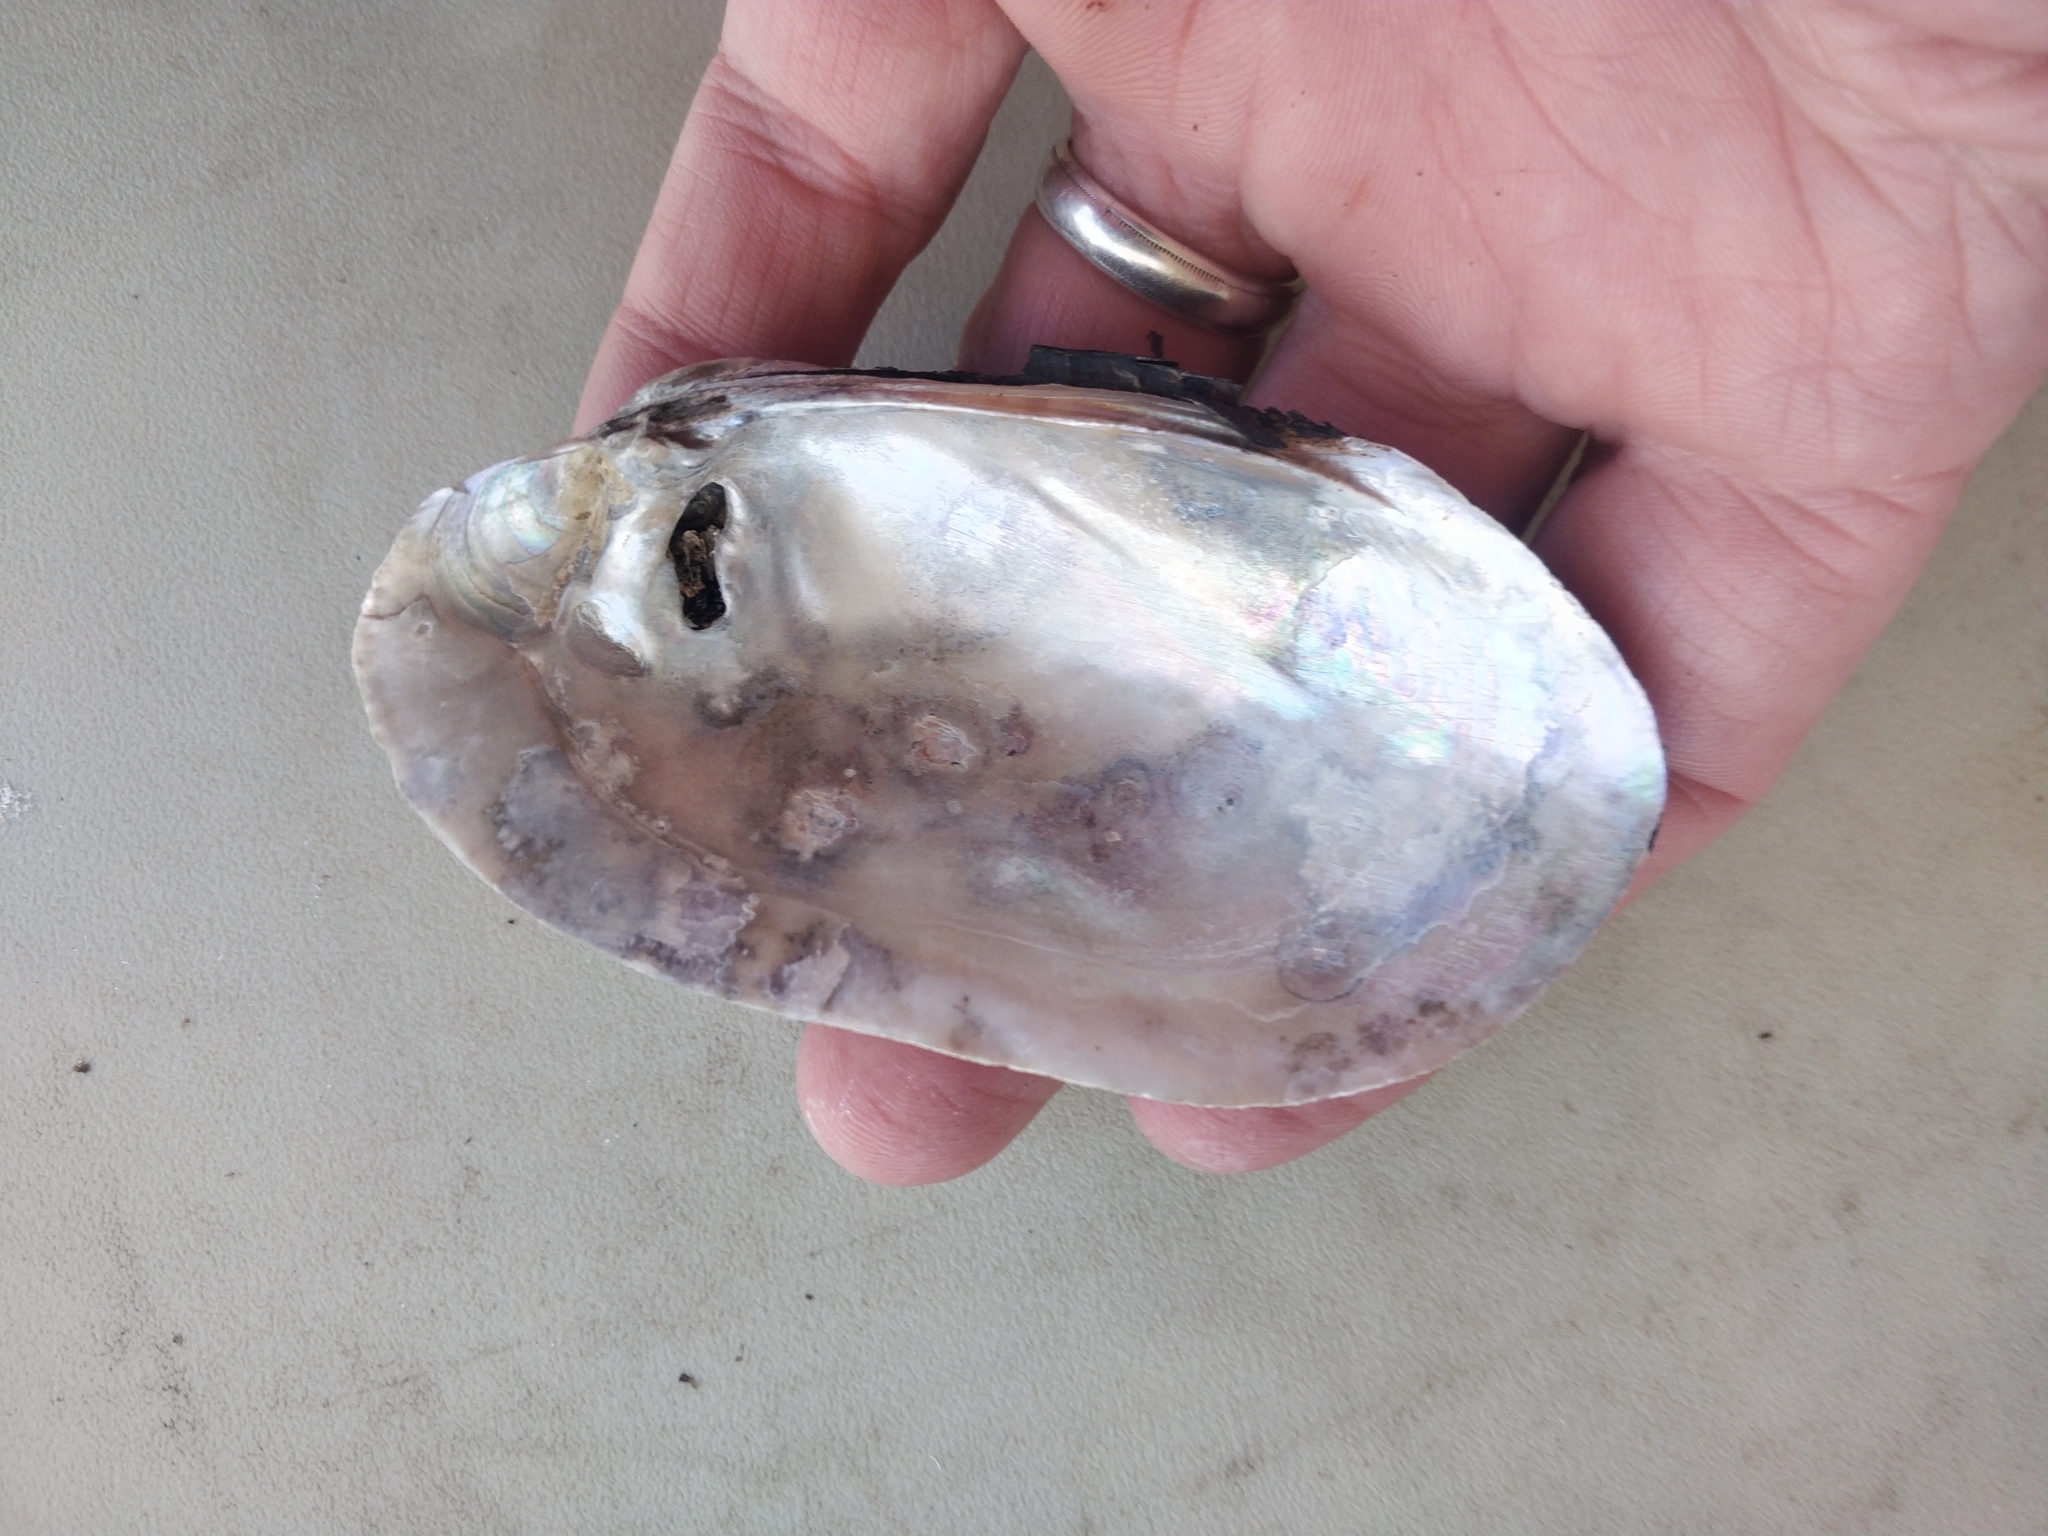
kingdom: Animalia
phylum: Mollusca
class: Bivalvia
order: Unionida
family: Unionidae
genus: Lampsilis
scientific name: Lampsilis siliquoidea
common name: Fatmucket
